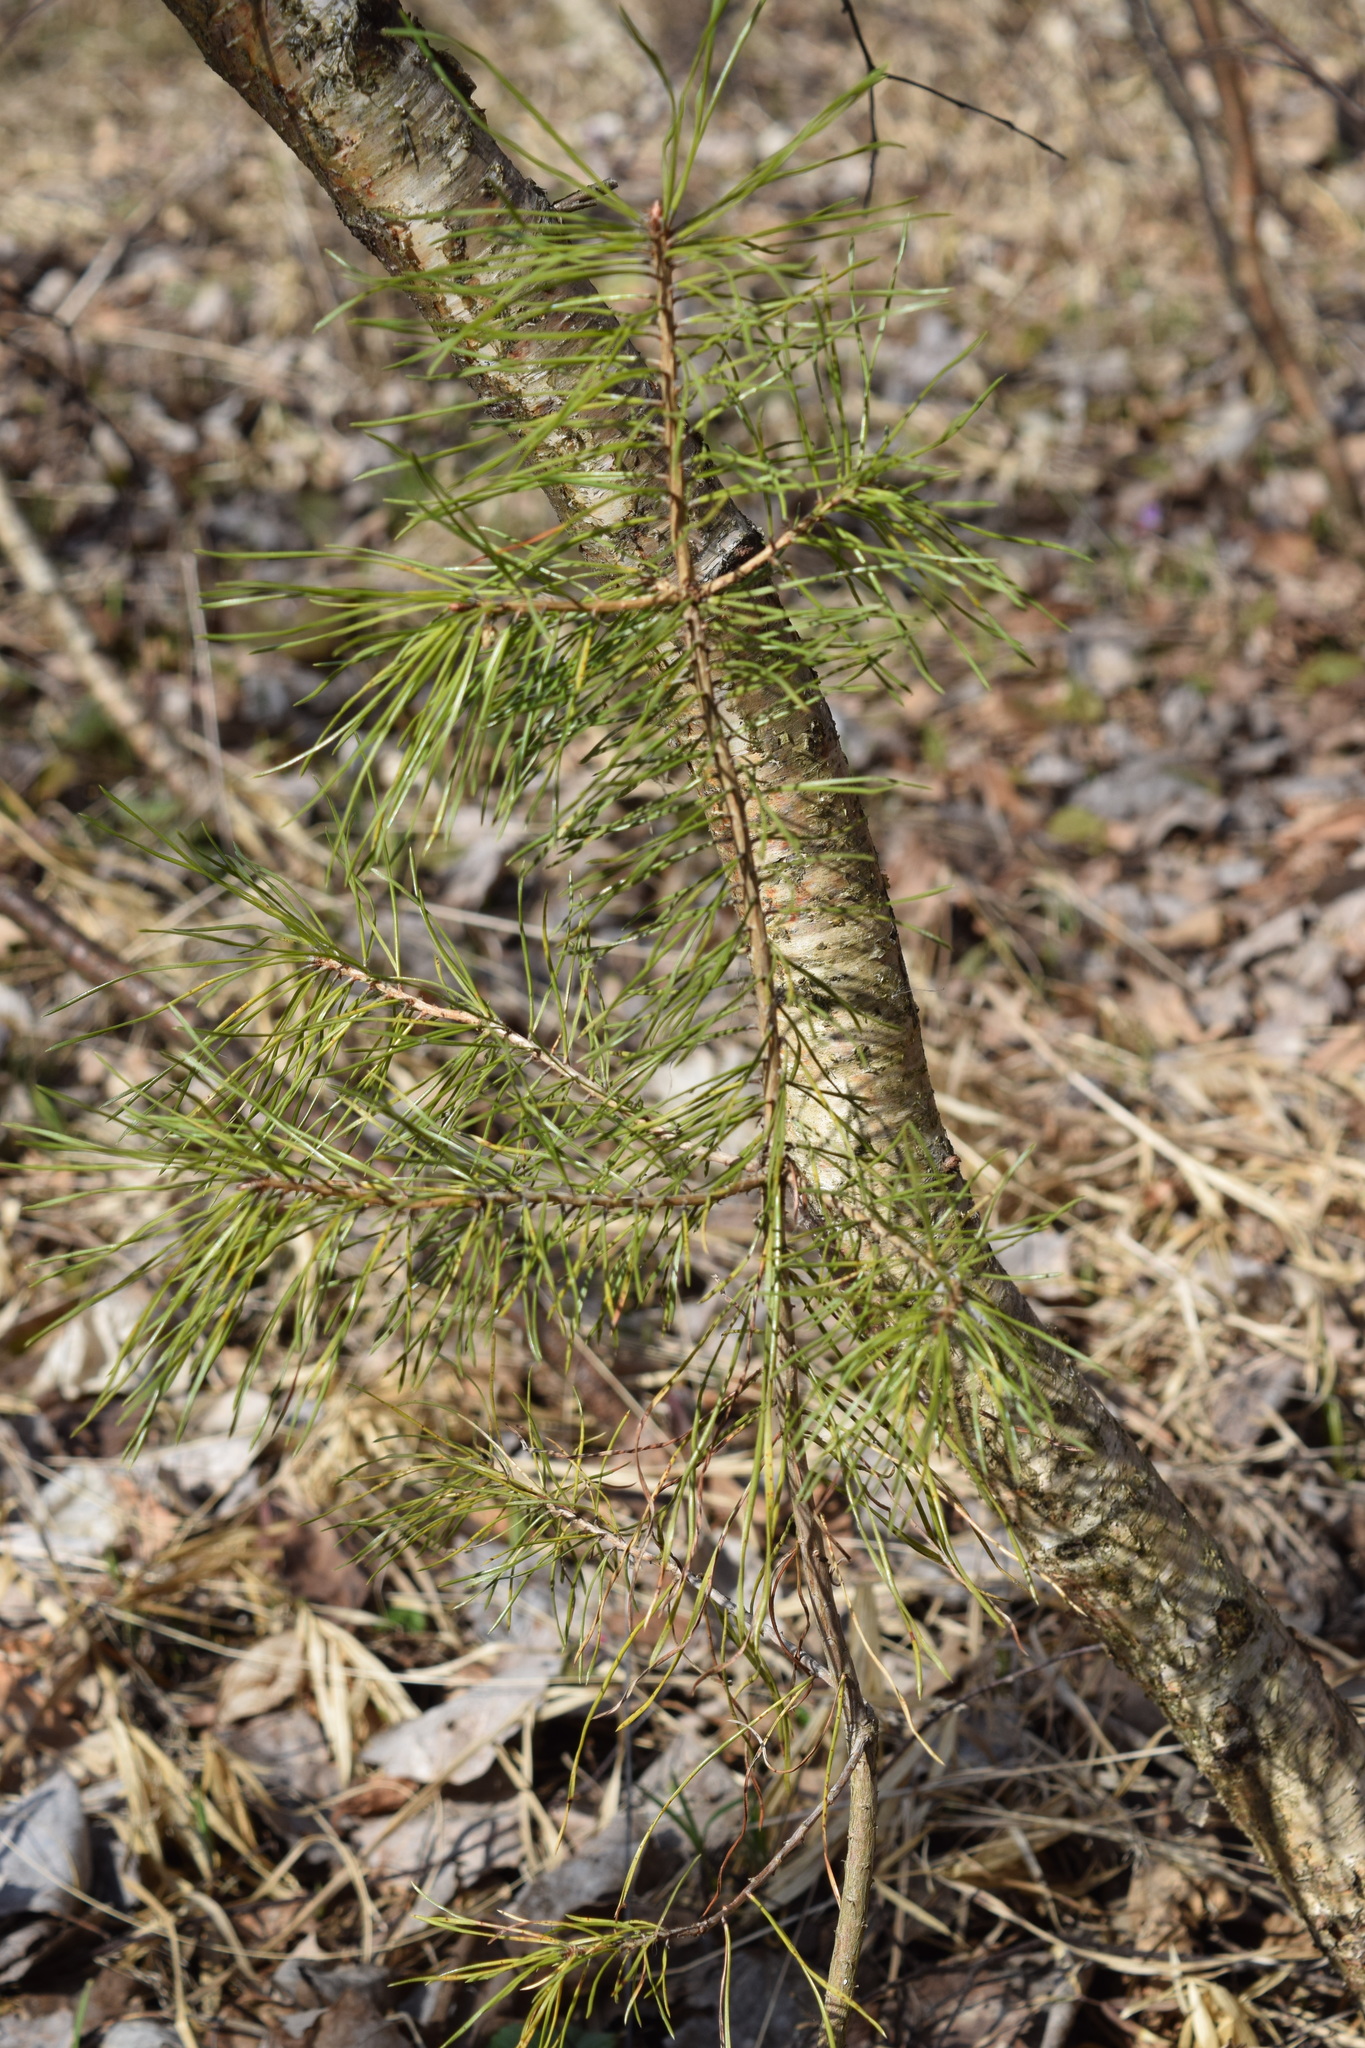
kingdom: Plantae
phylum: Tracheophyta
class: Pinopsida
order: Pinales
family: Pinaceae
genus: Pinus
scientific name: Pinus sylvestris
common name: Scots pine
